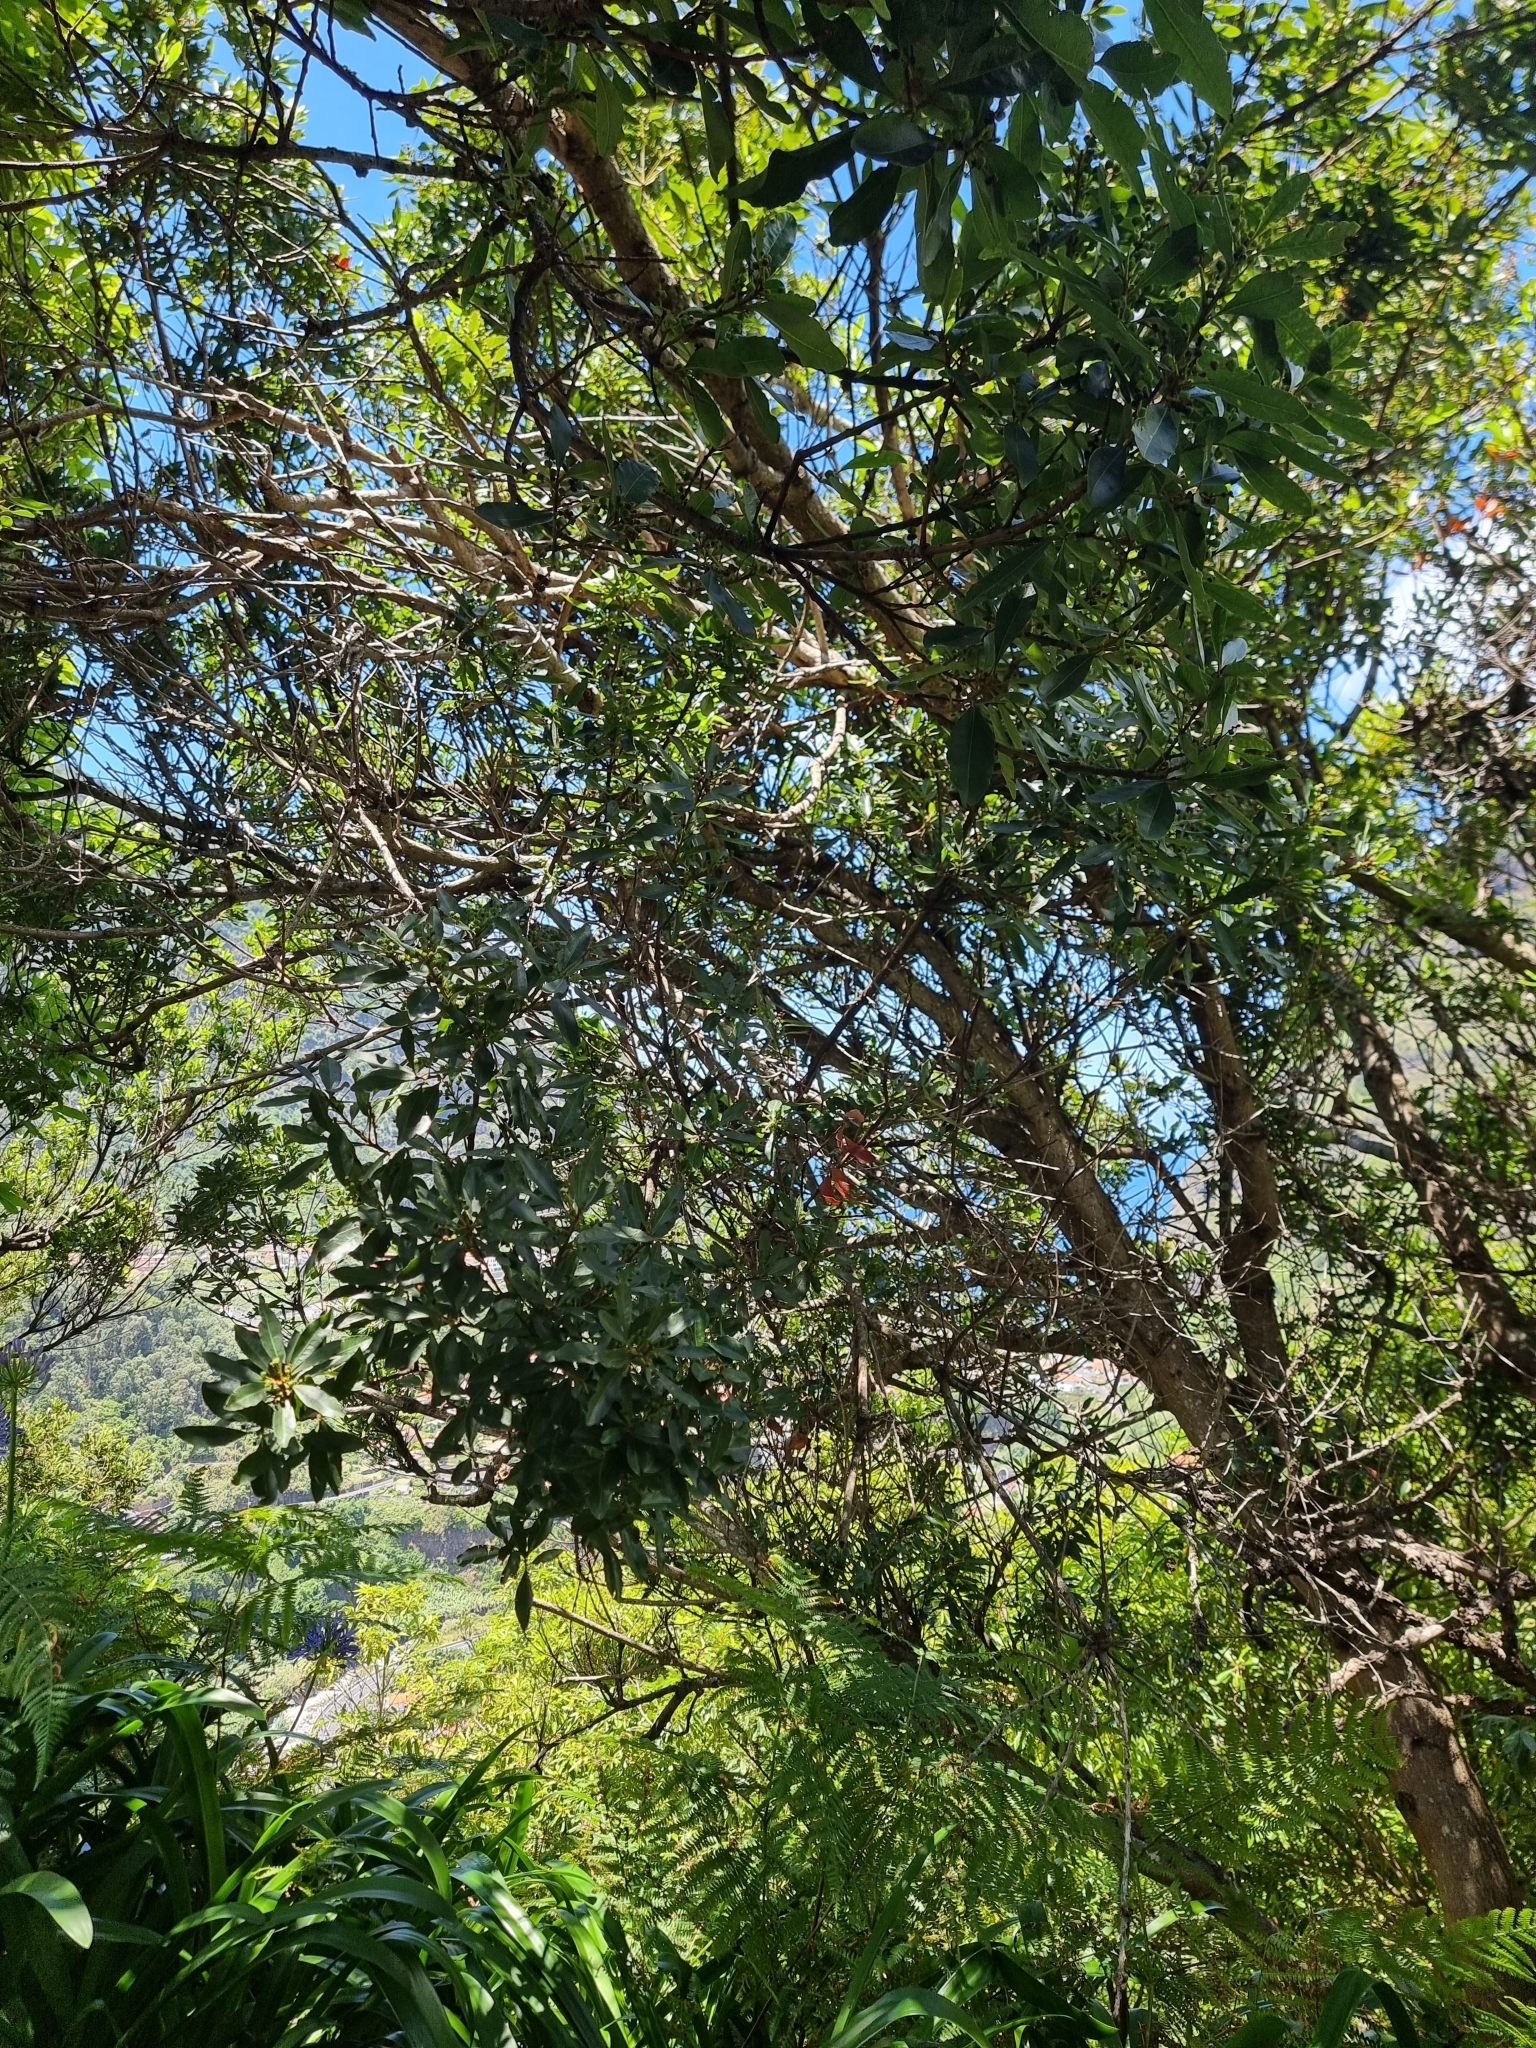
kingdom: Plantae
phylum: Tracheophyta
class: Magnoliopsida
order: Fagales
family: Myricaceae
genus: Morella
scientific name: Morella faya
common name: Firetree
